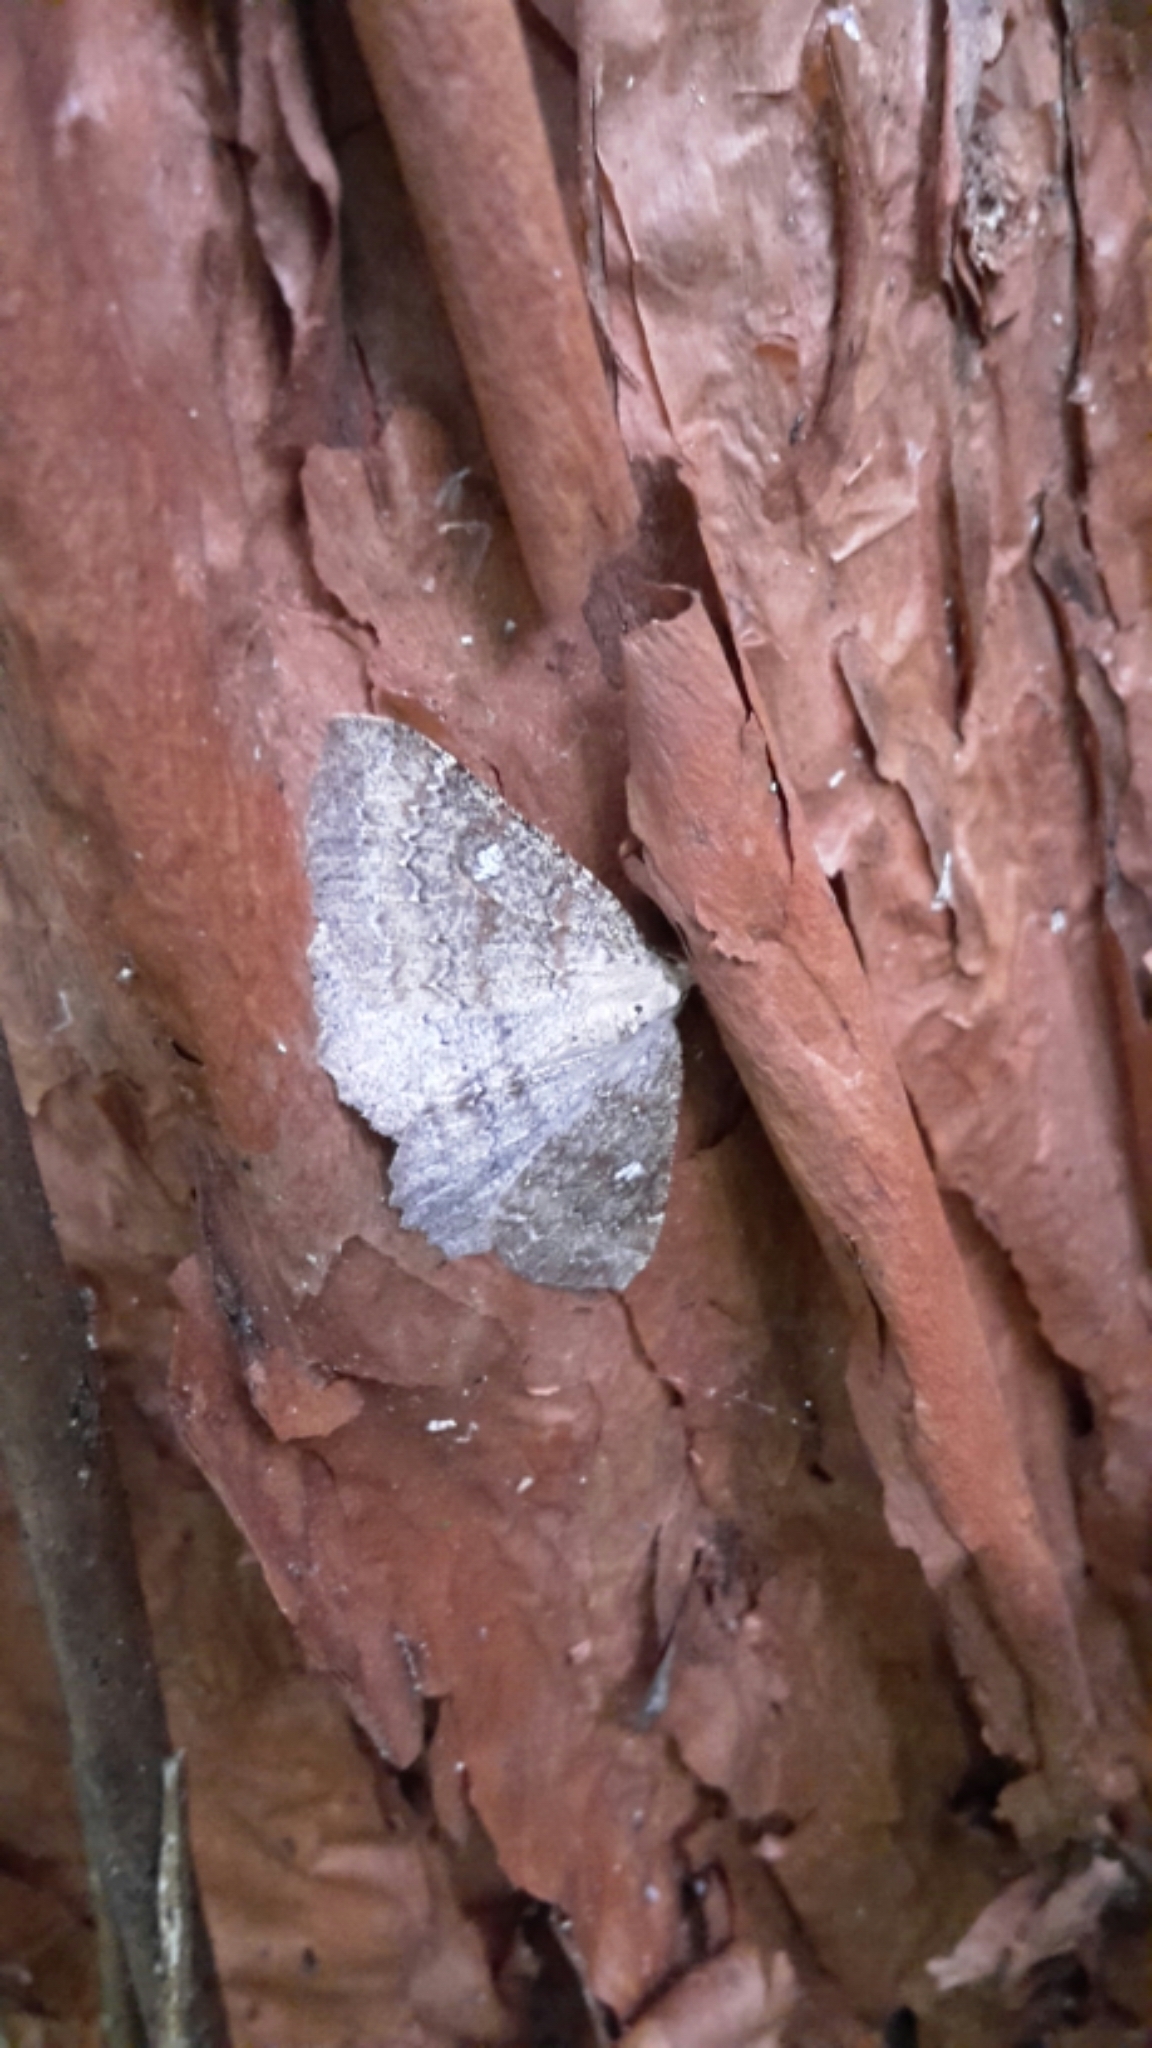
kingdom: Animalia
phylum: Arthropoda
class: Insecta
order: Lepidoptera
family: Geometridae
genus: Cleora
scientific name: Cleora scriptaria
